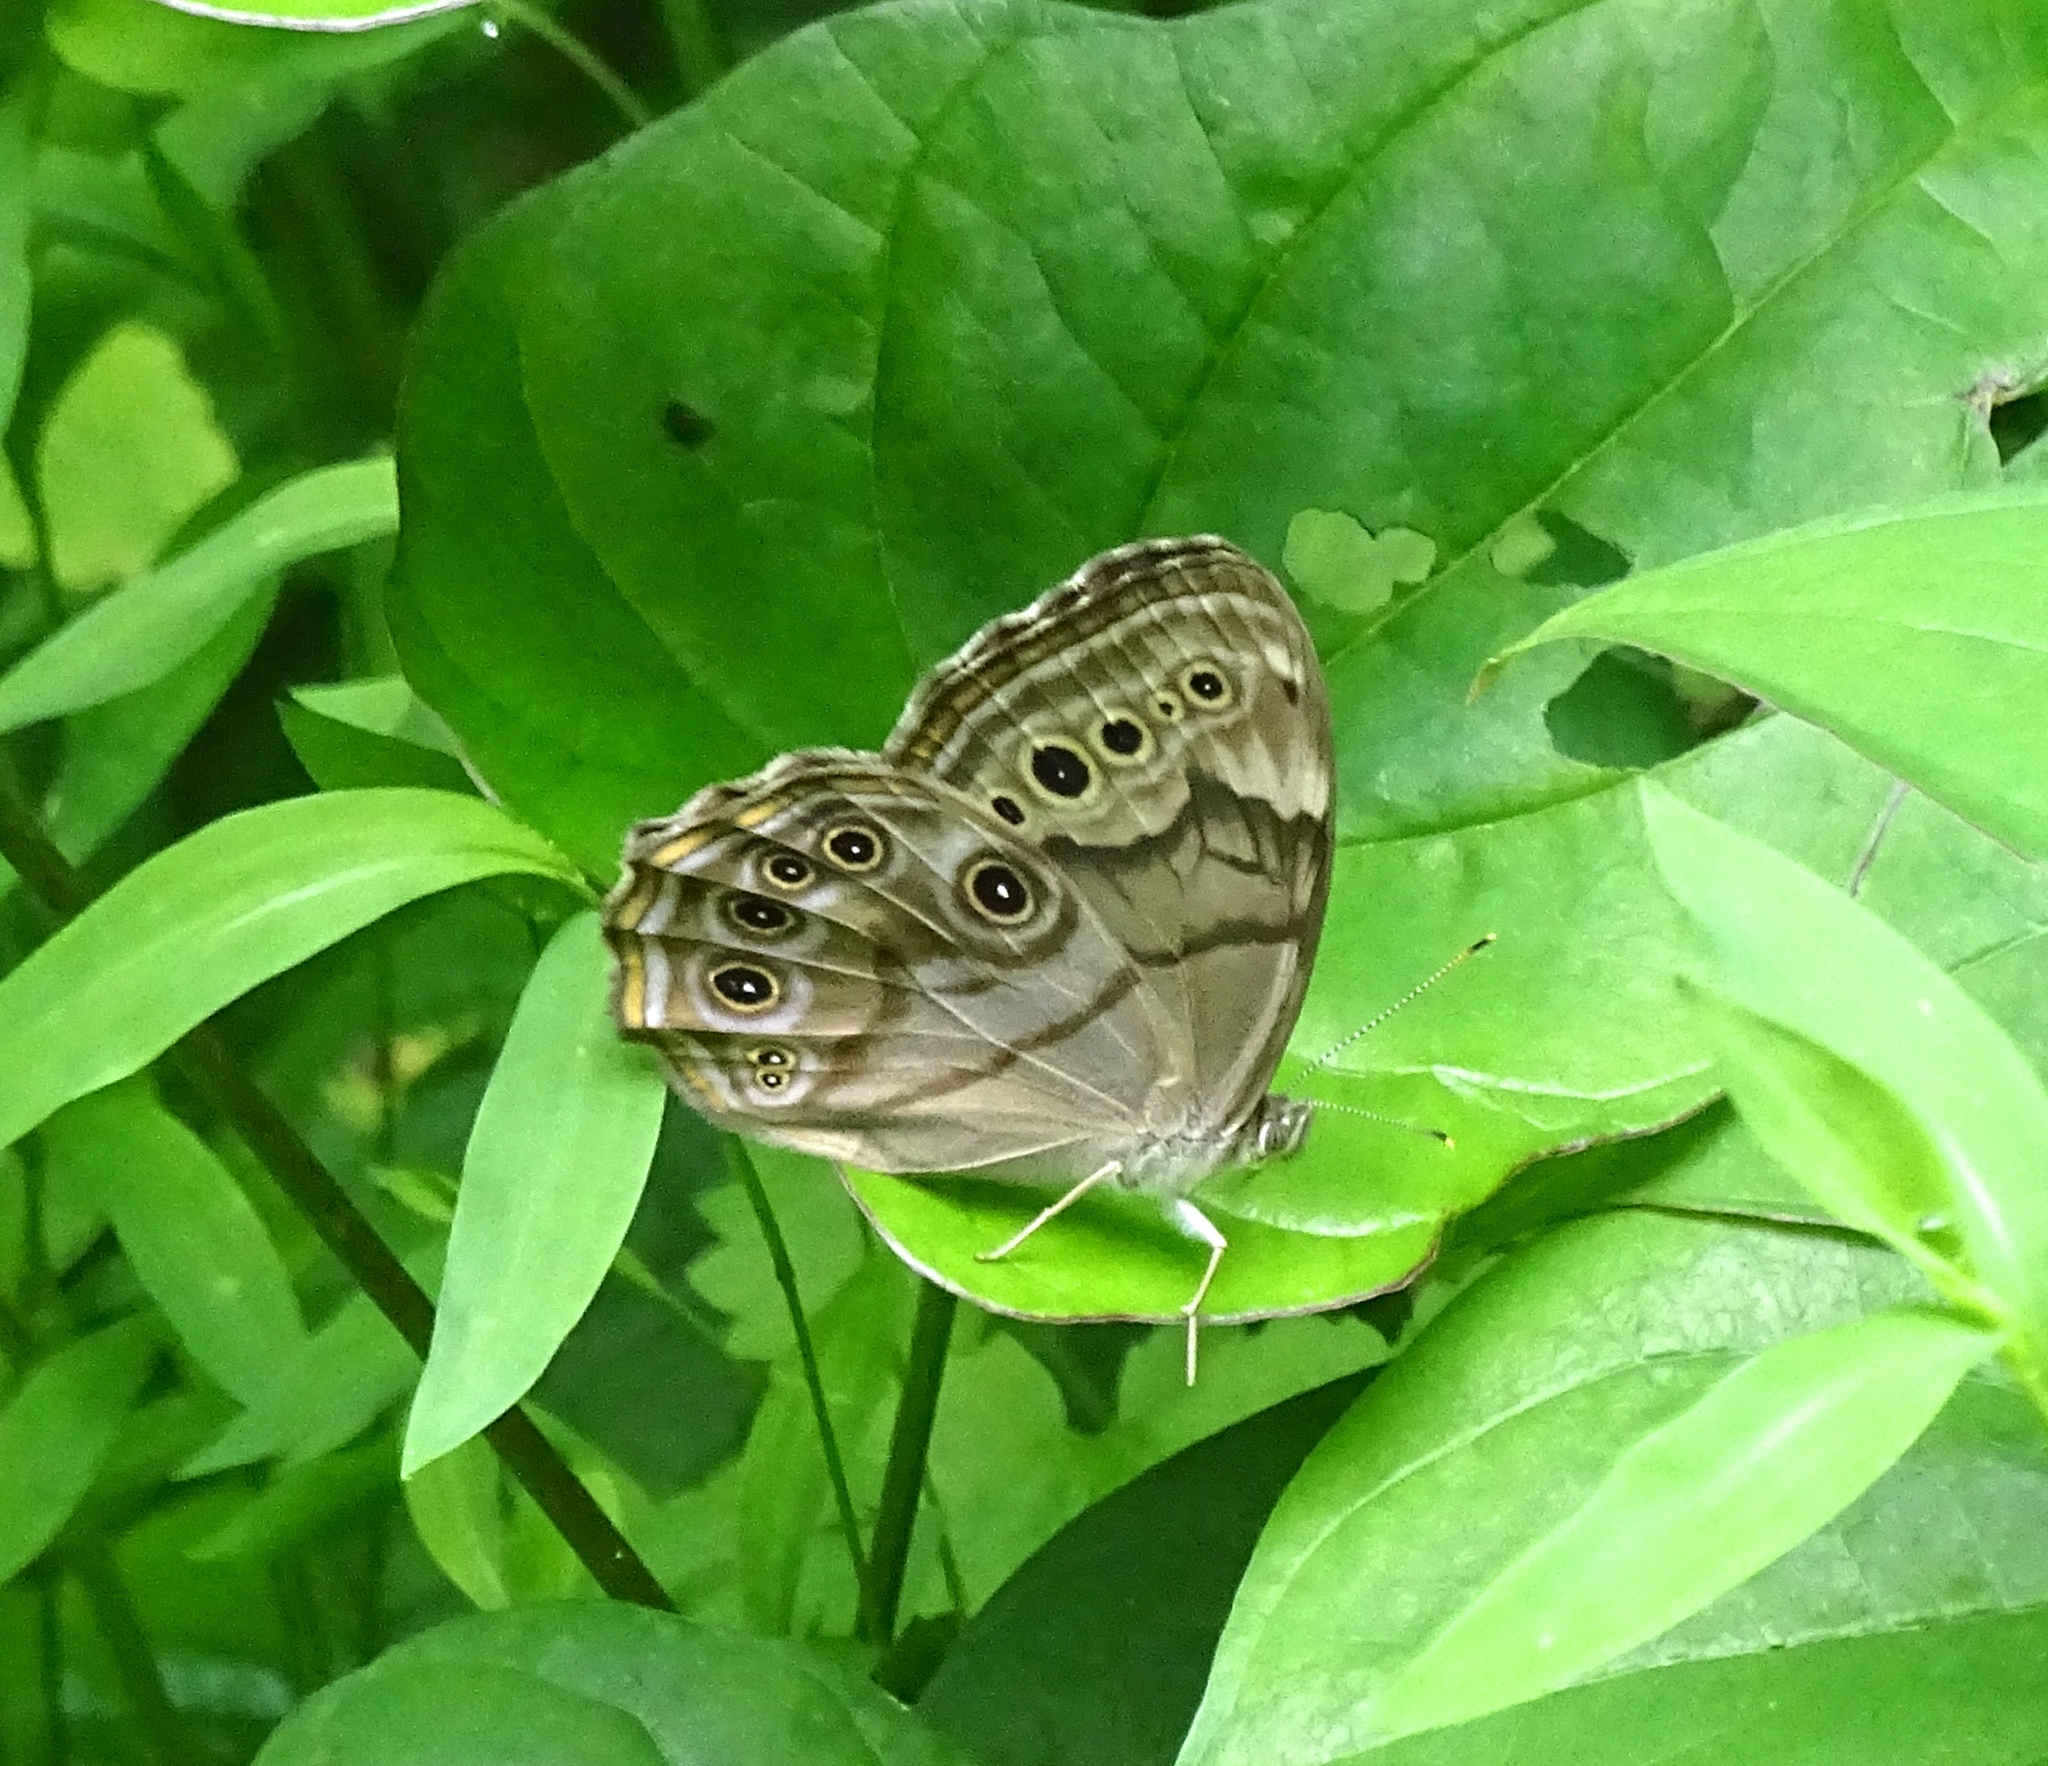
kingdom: Animalia
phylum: Arthropoda
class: Insecta
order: Lepidoptera
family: Nymphalidae
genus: Lethe
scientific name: Lethe anthedon
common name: Northern pearly-eye
